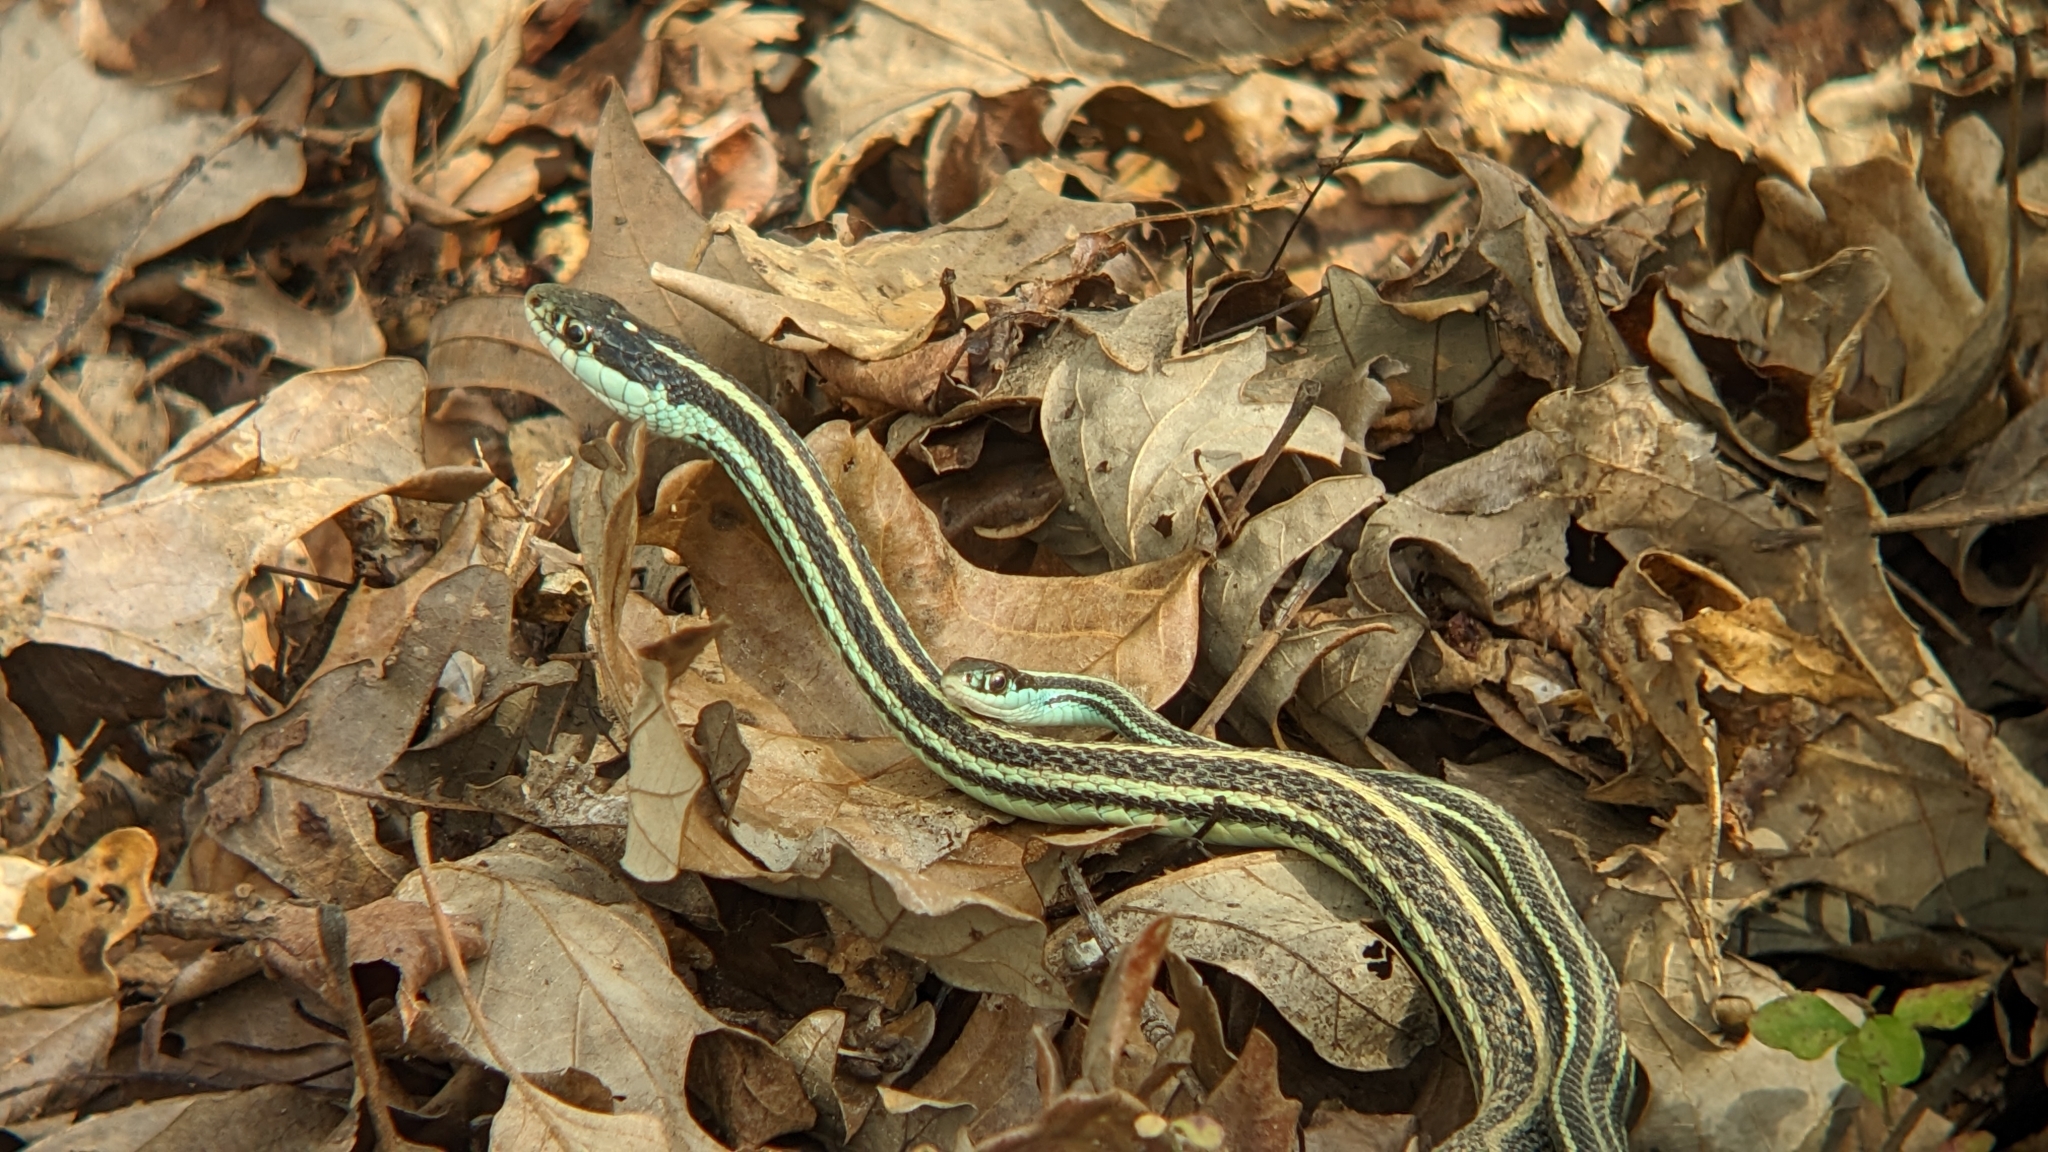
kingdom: Animalia
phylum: Chordata
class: Squamata
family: Colubridae
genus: Thamnophis
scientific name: Thamnophis proximus
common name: Western ribbon snake
